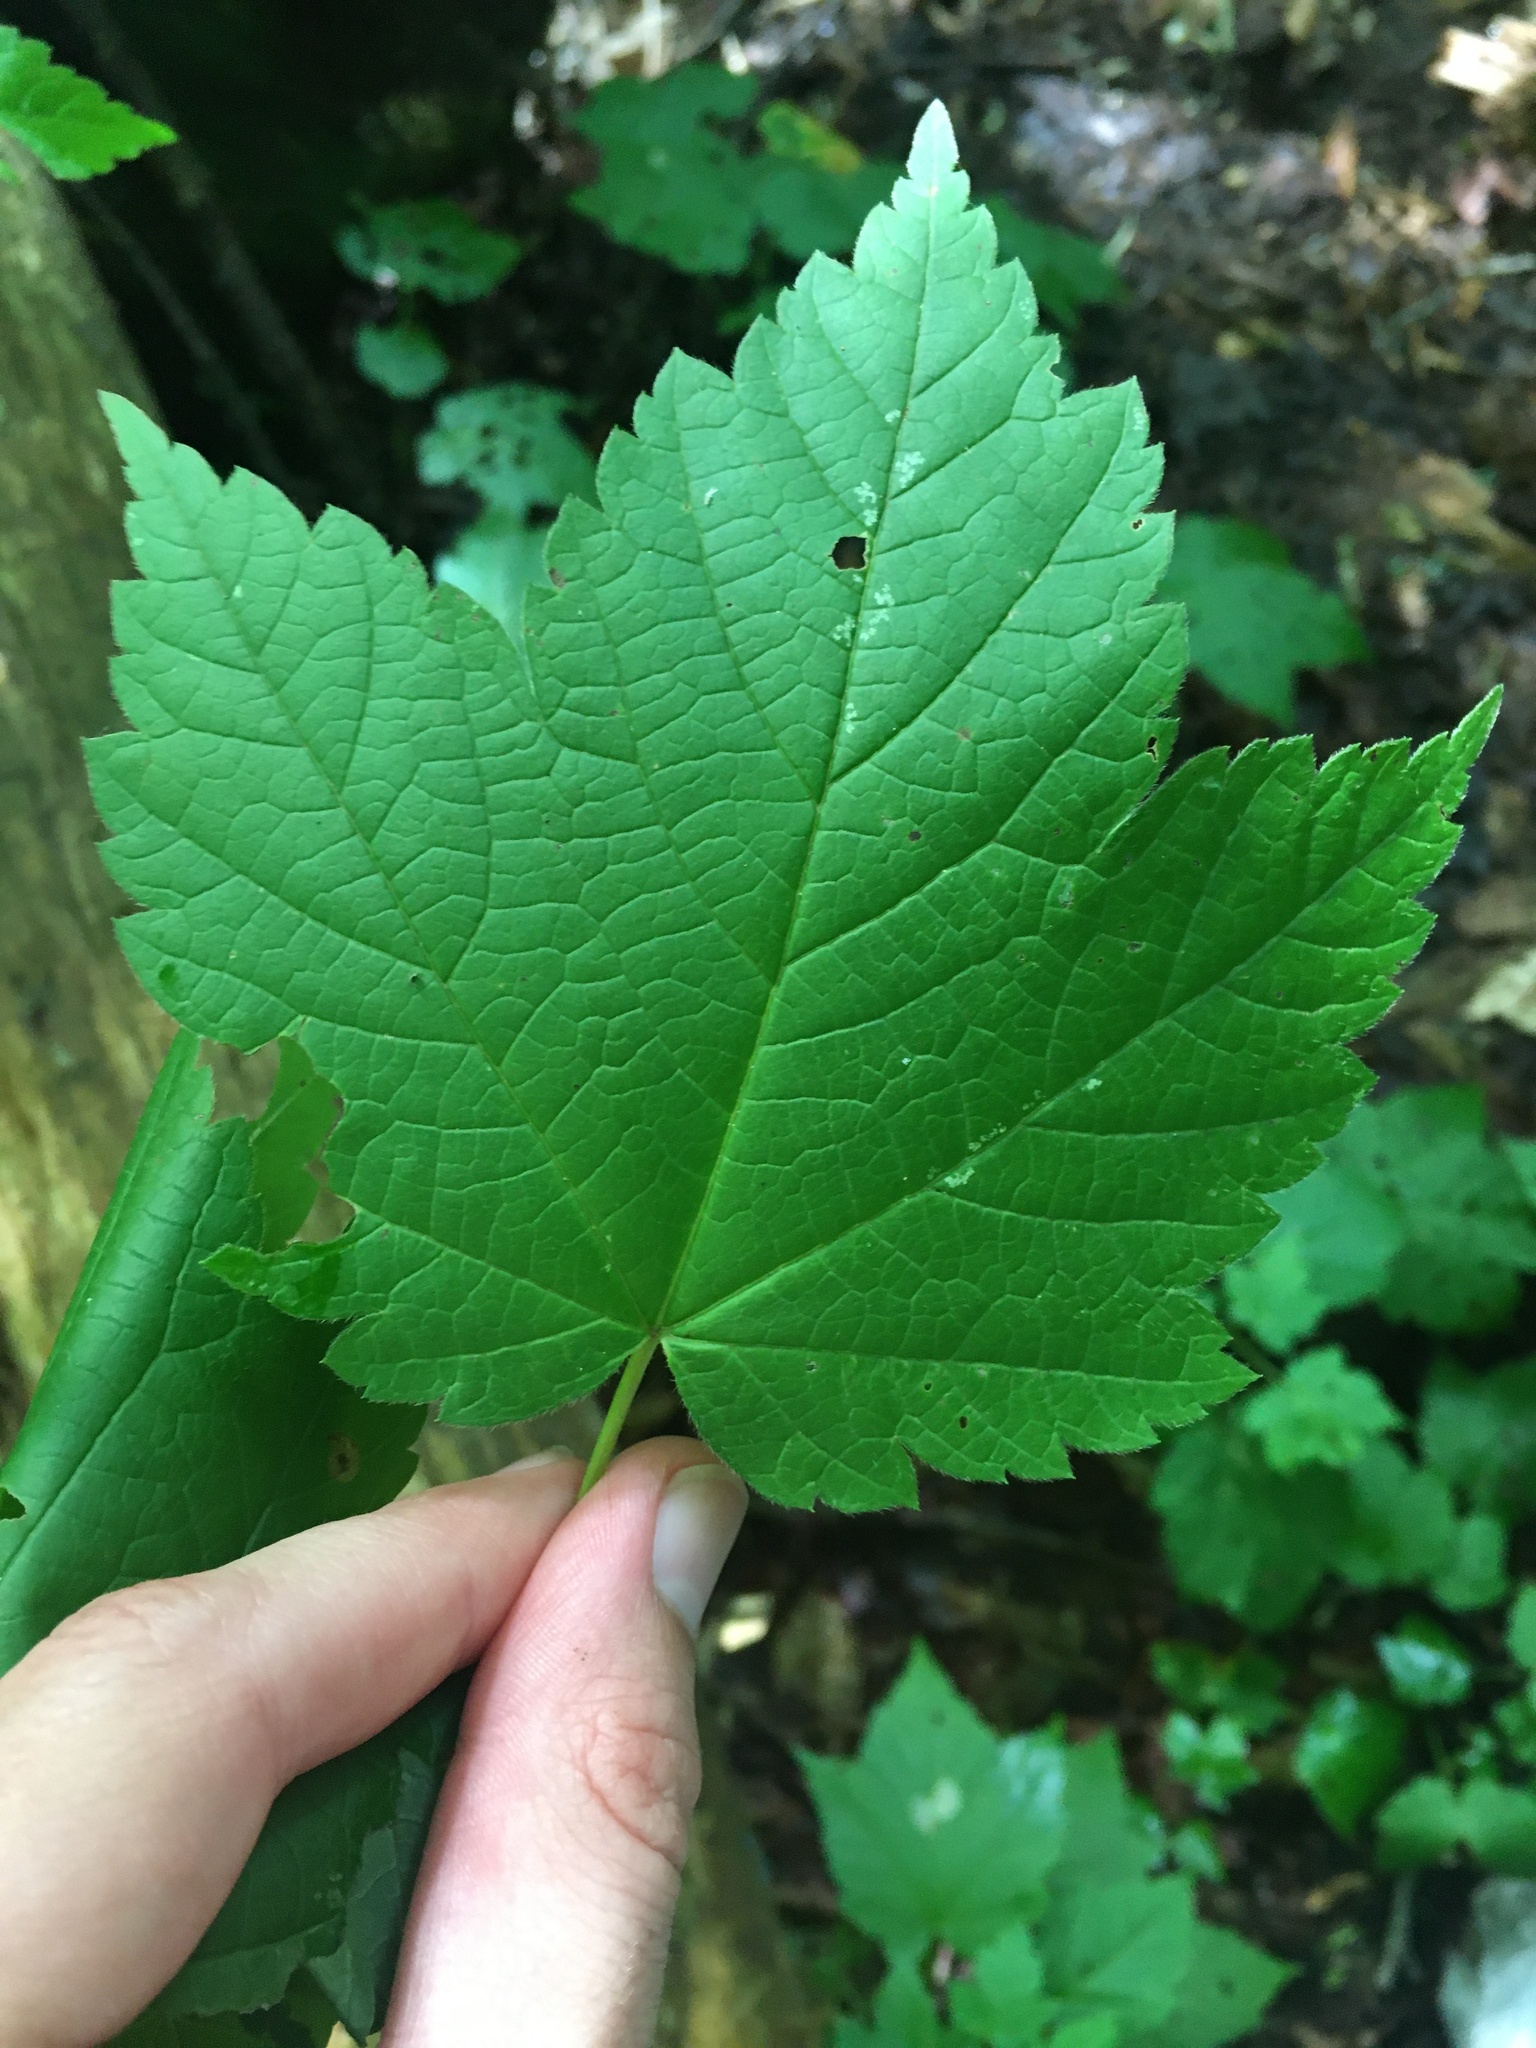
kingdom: Plantae
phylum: Tracheophyta
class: Magnoliopsida
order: Sapindales
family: Sapindaceae
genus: Acer
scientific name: Acer spicatum
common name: Mountain maple
